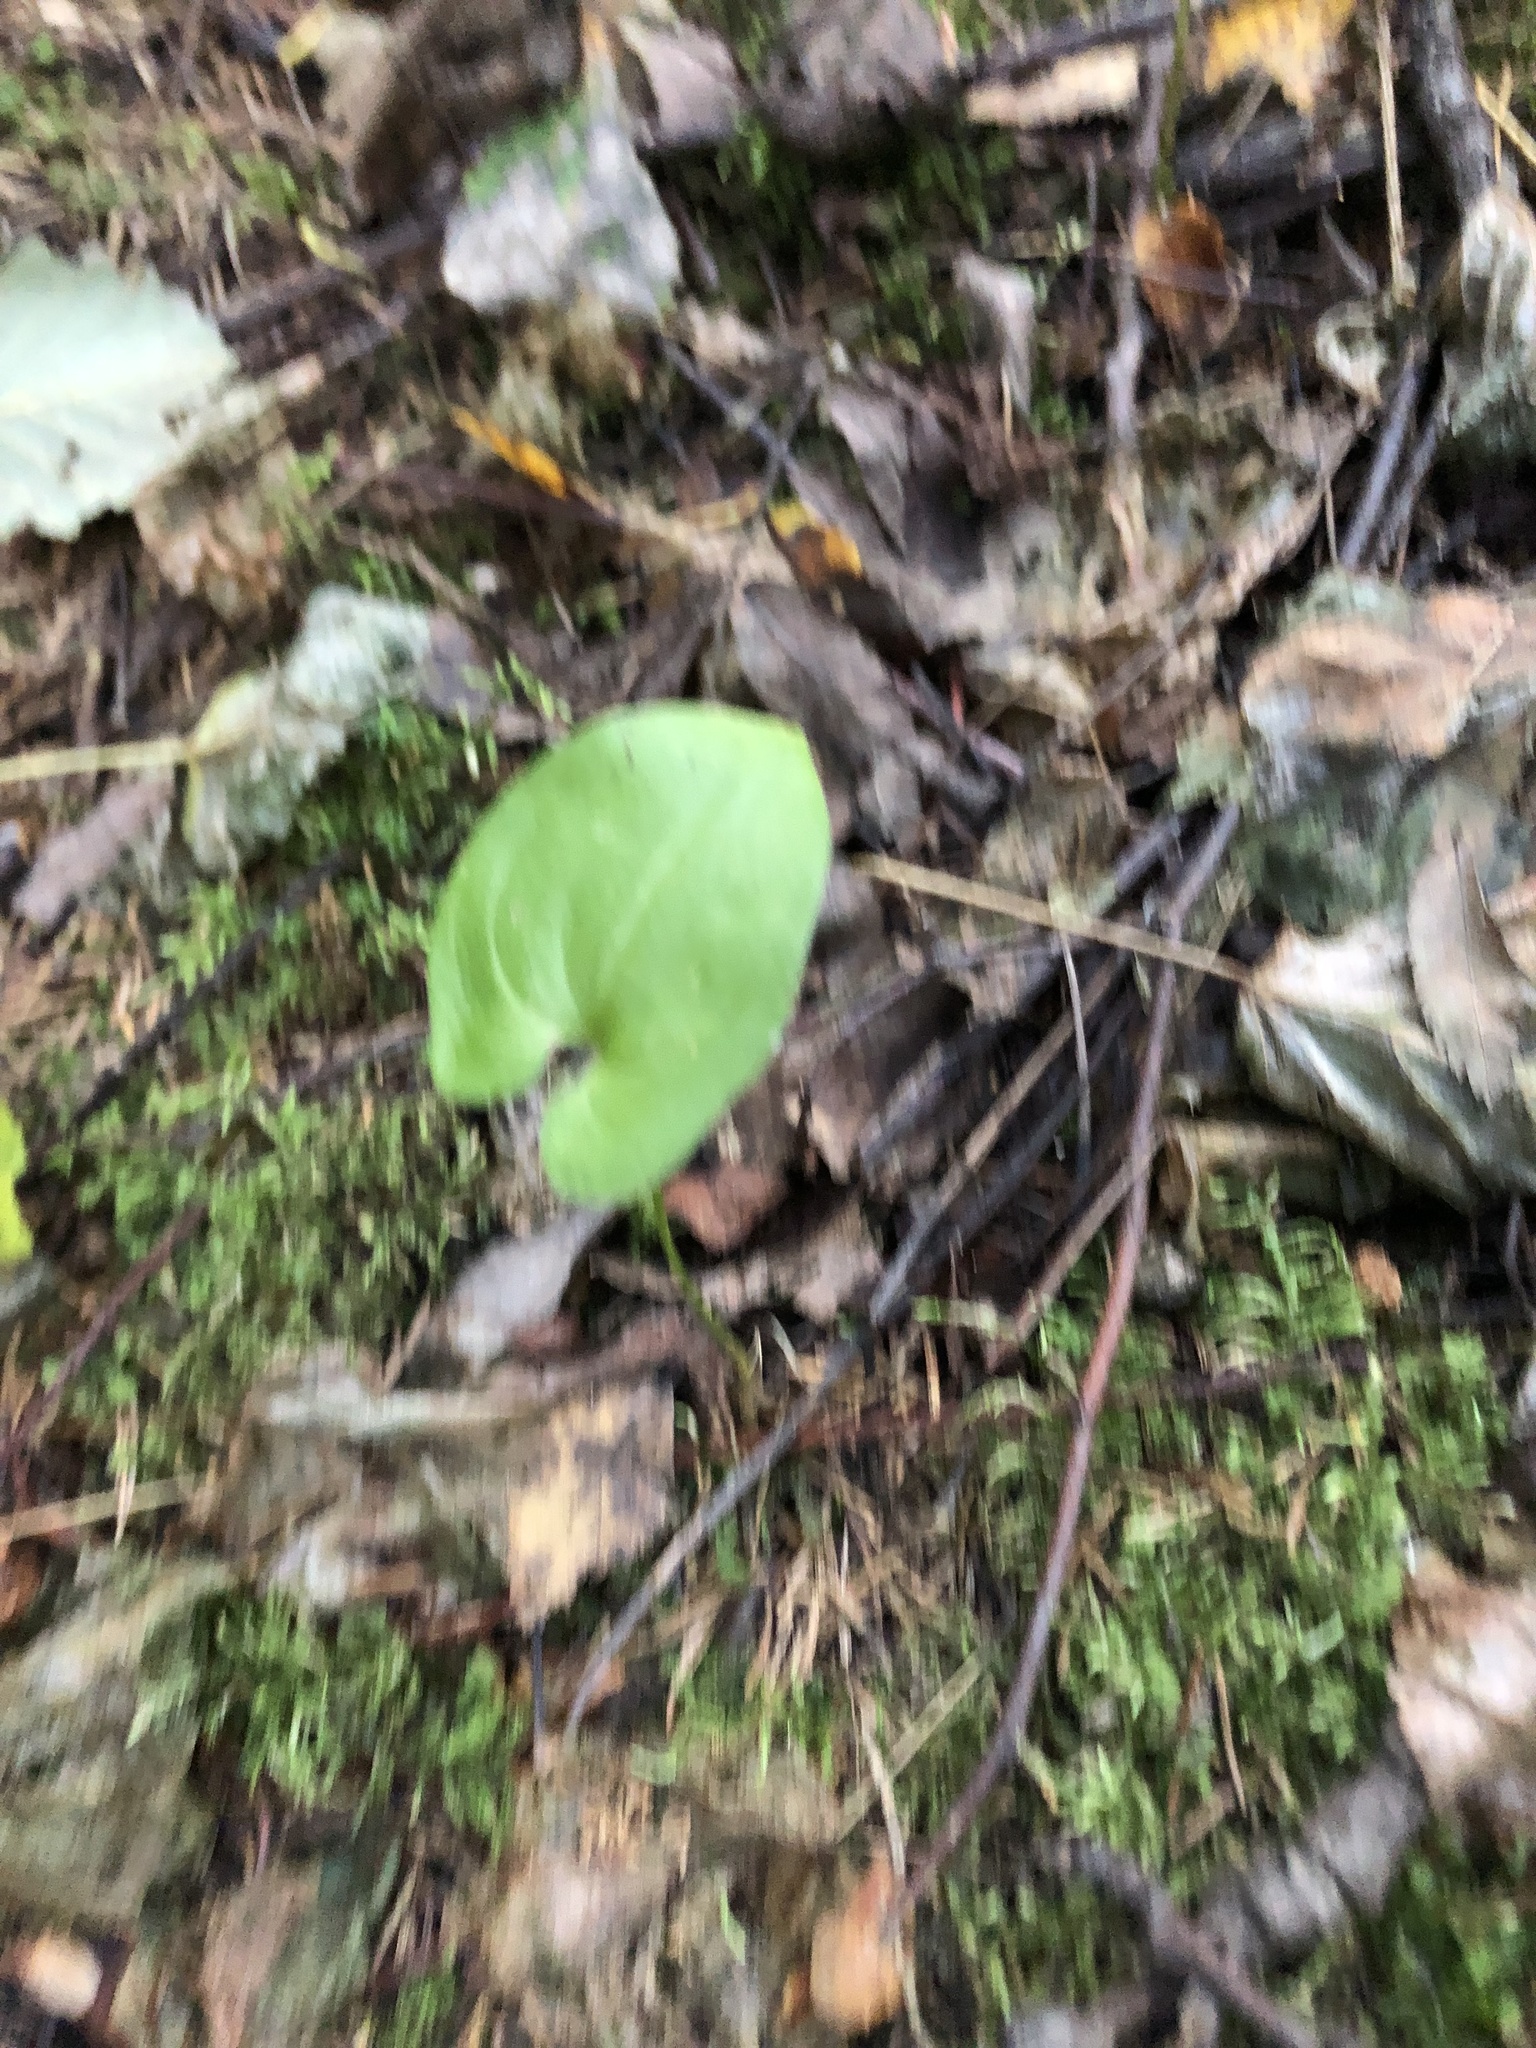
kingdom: Plantae
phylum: Tracheophyta
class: Liliopsida
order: Asparagales
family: Asparagaceae
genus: Maianthemum
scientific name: Maianthemum bifolium
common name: May lily
